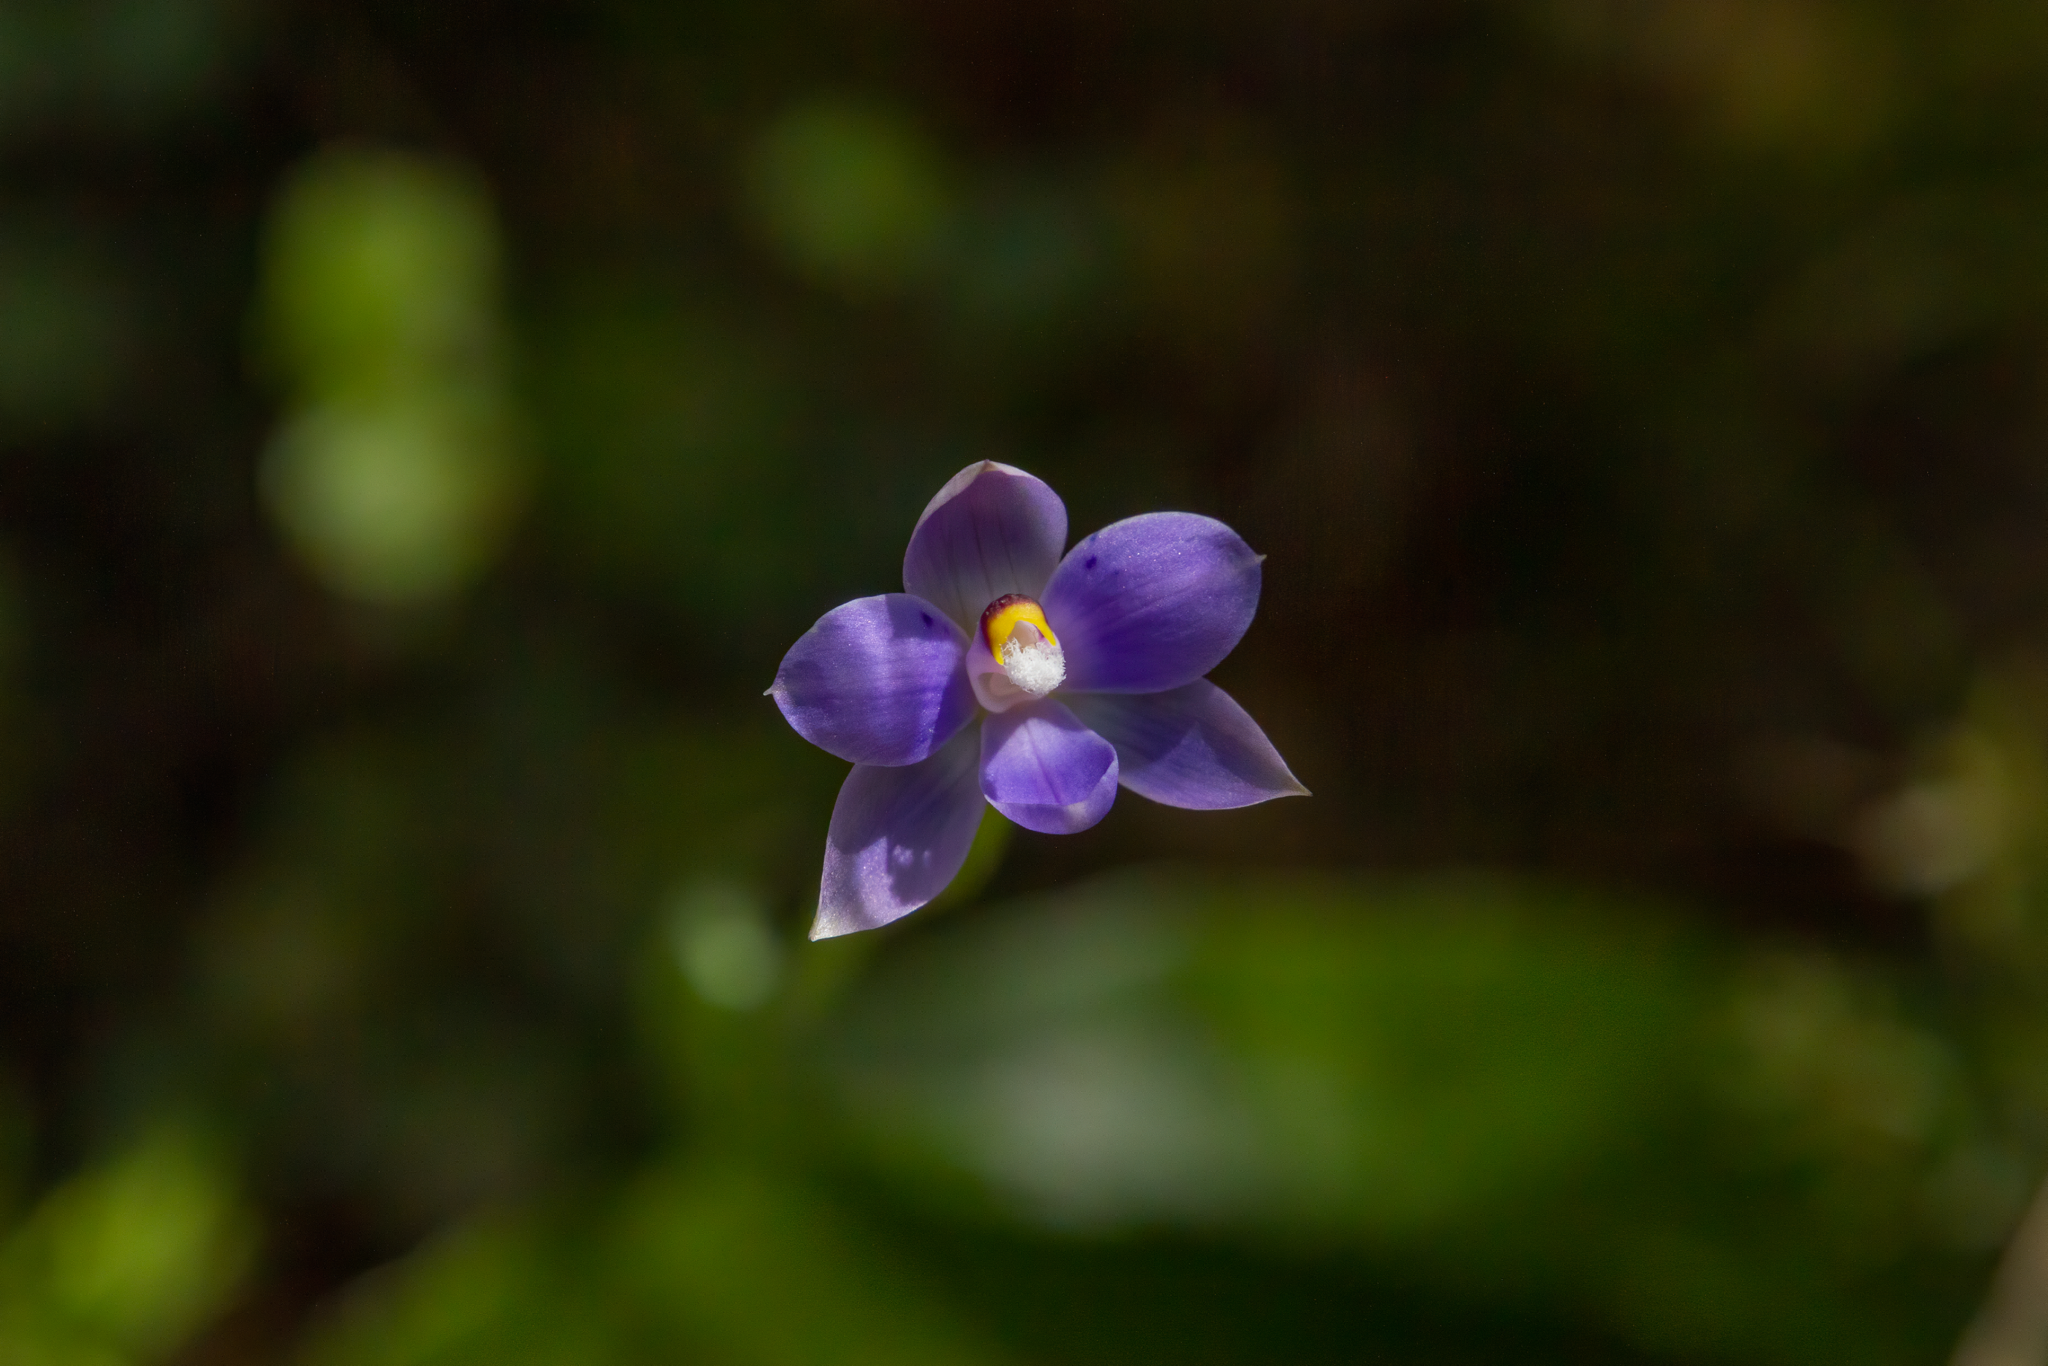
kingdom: Plantae
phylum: Tracheophyta
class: Liliopsida
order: Asparagales
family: Orchidaceae
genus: Thelymitra
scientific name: Thelymitra nervosa
